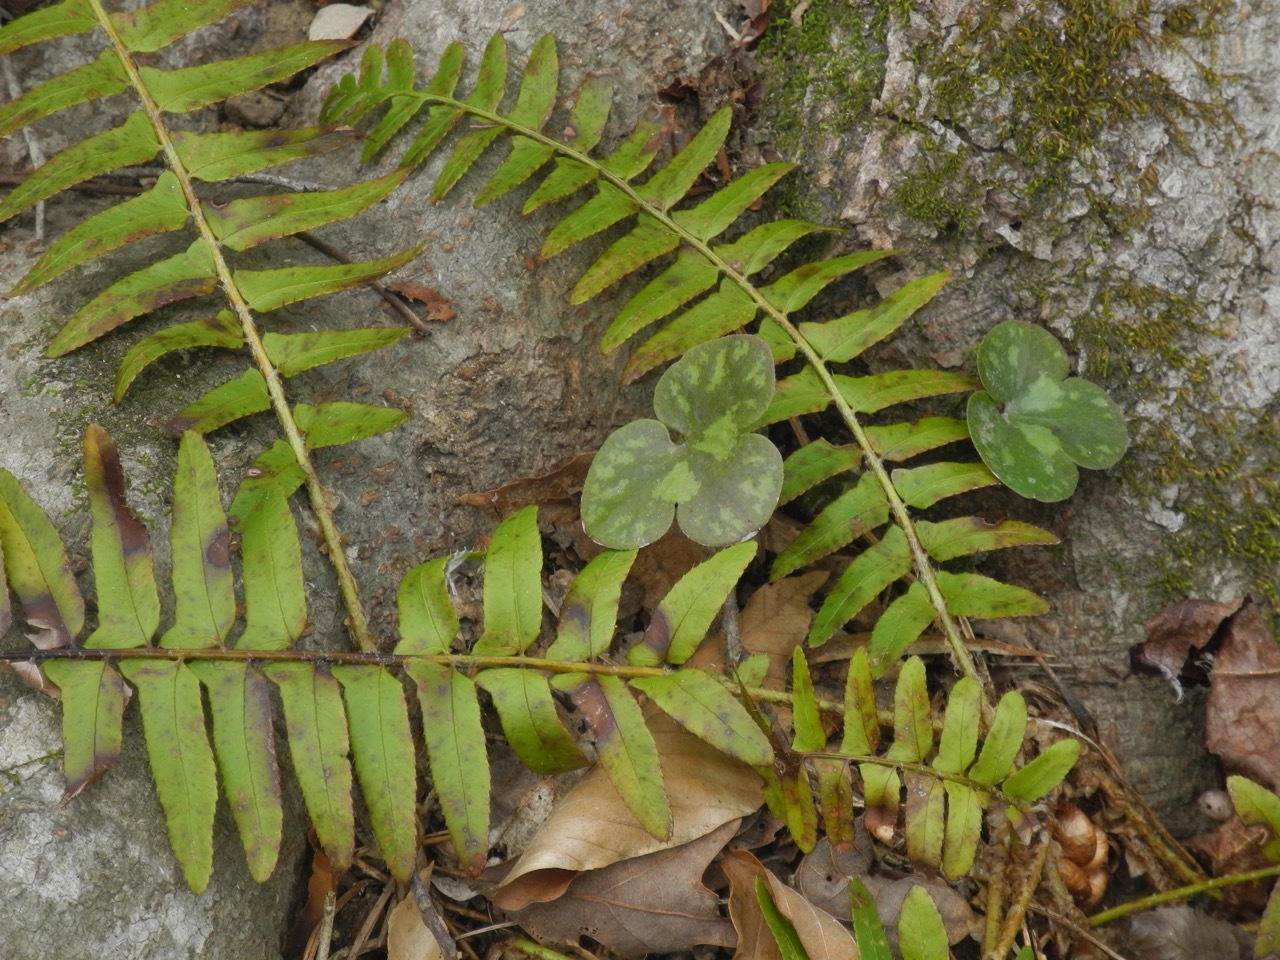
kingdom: Plantae
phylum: Tracheophyta
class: Magnoliopsida
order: Ranunculales
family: Ranunculaceae
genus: Hepatica
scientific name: Hepatica americana
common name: American hepatica
